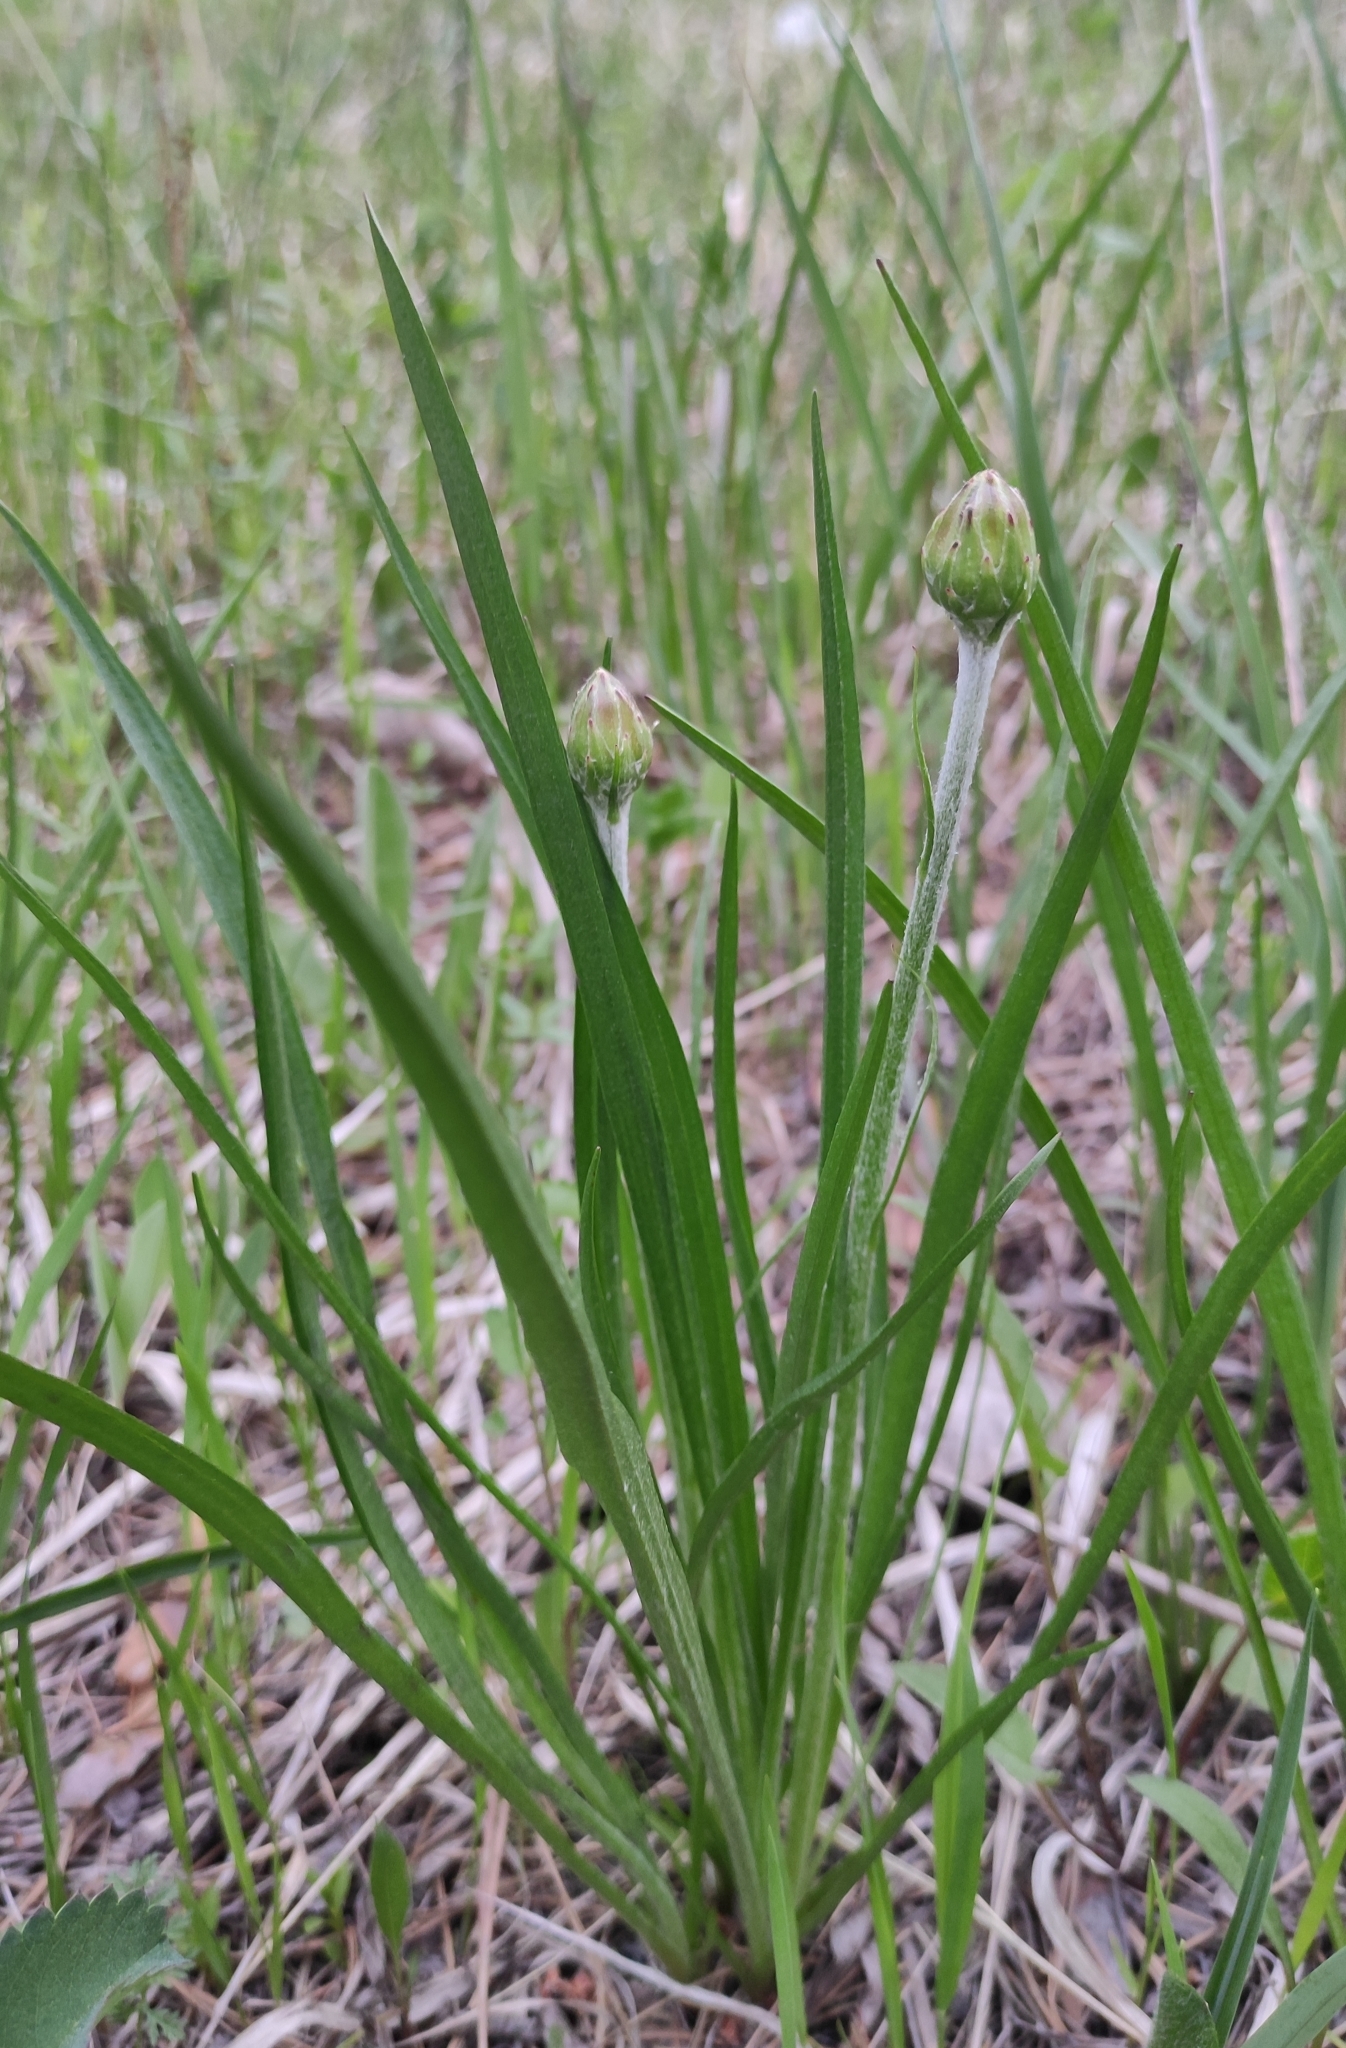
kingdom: Plantae
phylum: Tracheophyta
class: Magnoliopsida
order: Asterales
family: Asteraceae
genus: Scorzonera
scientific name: Scorzonera radiata
